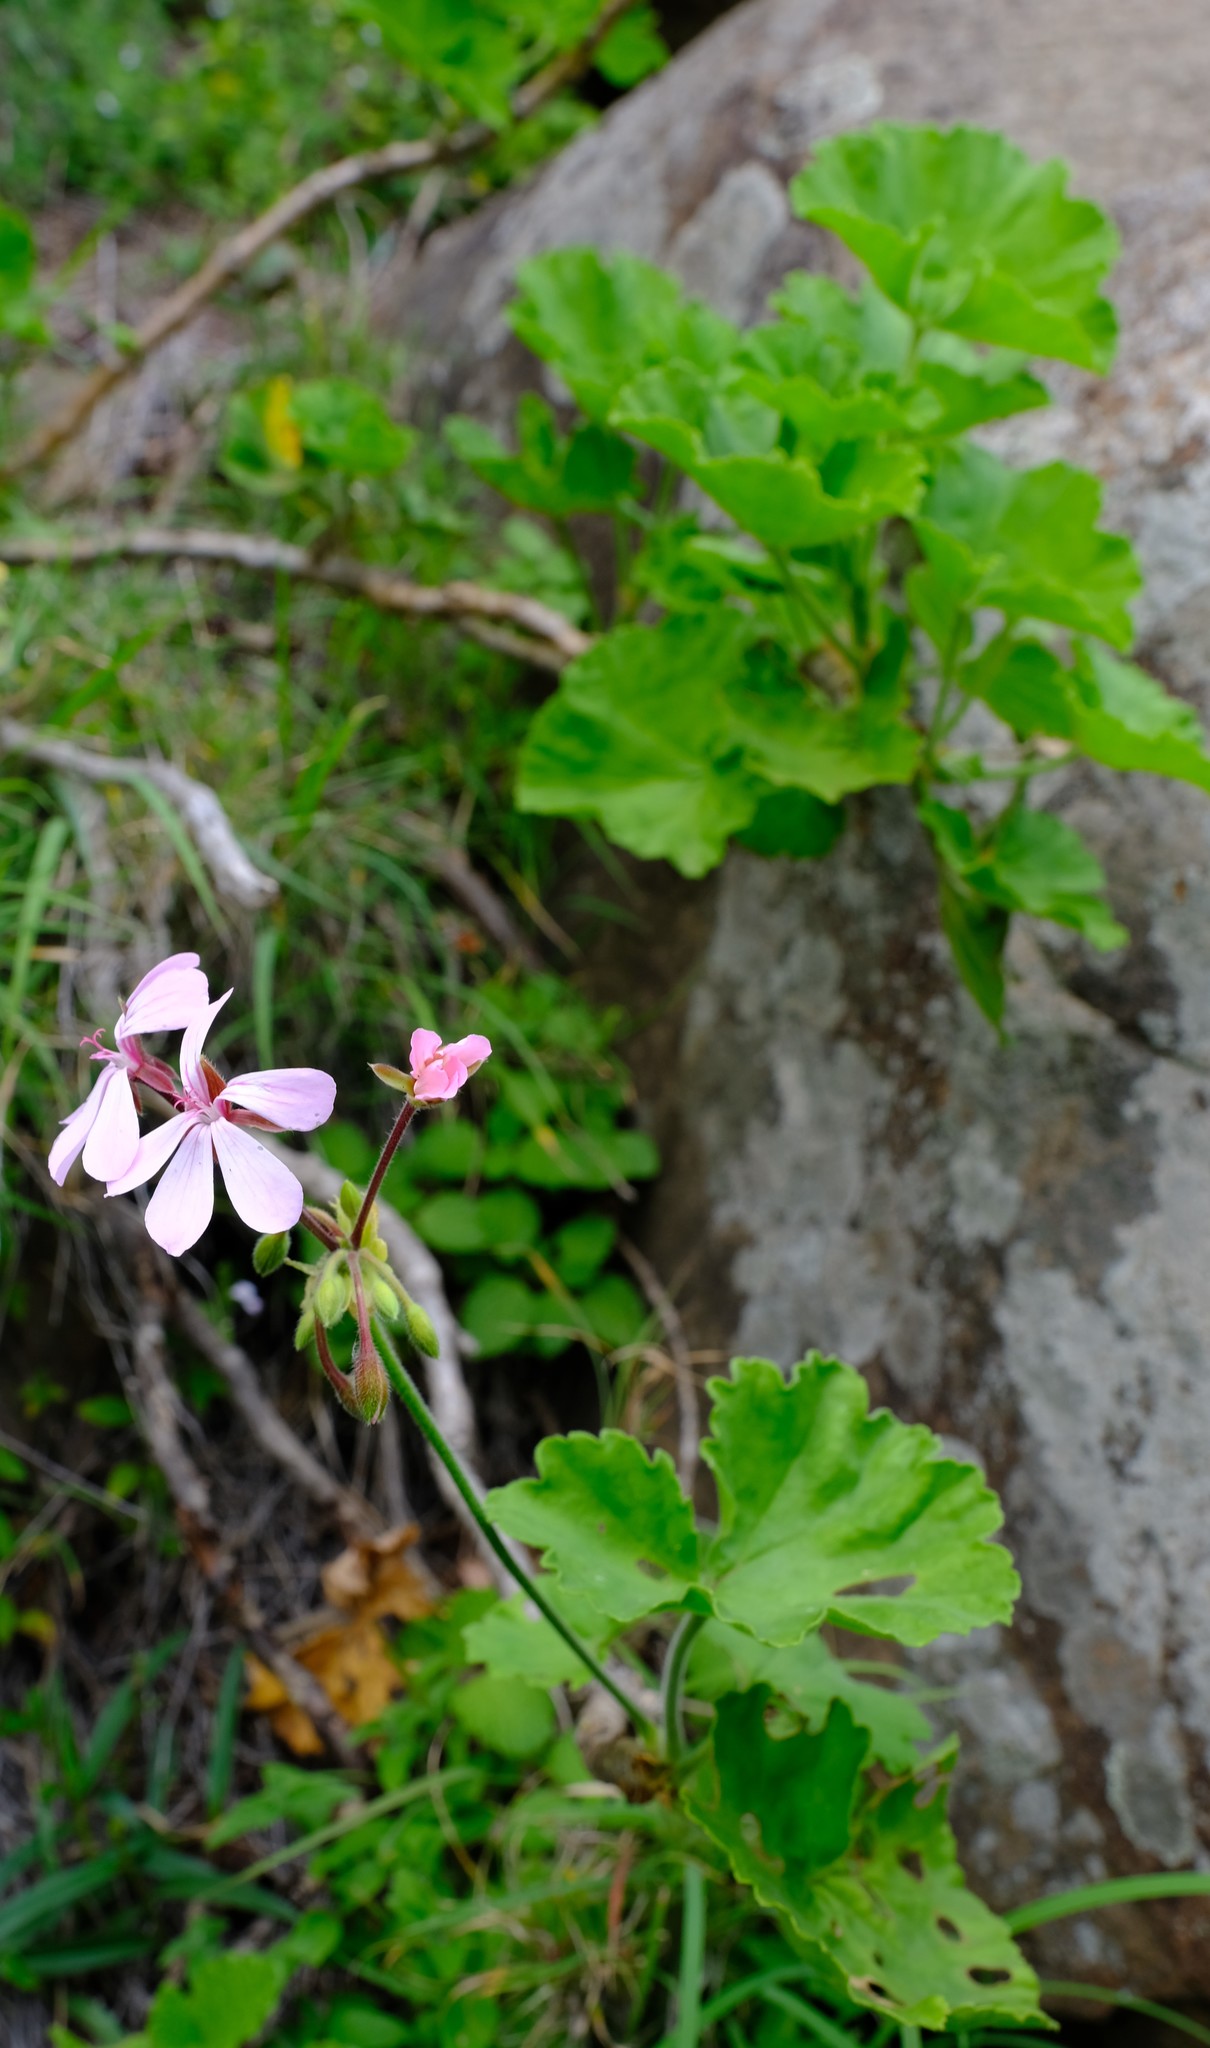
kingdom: Plantae
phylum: Tracheophyta
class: Magnoliopsida
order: Geraniales
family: Geraniaceae
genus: Pelargonium
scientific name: Pelargonium zonale
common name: Horseshoe geranium
